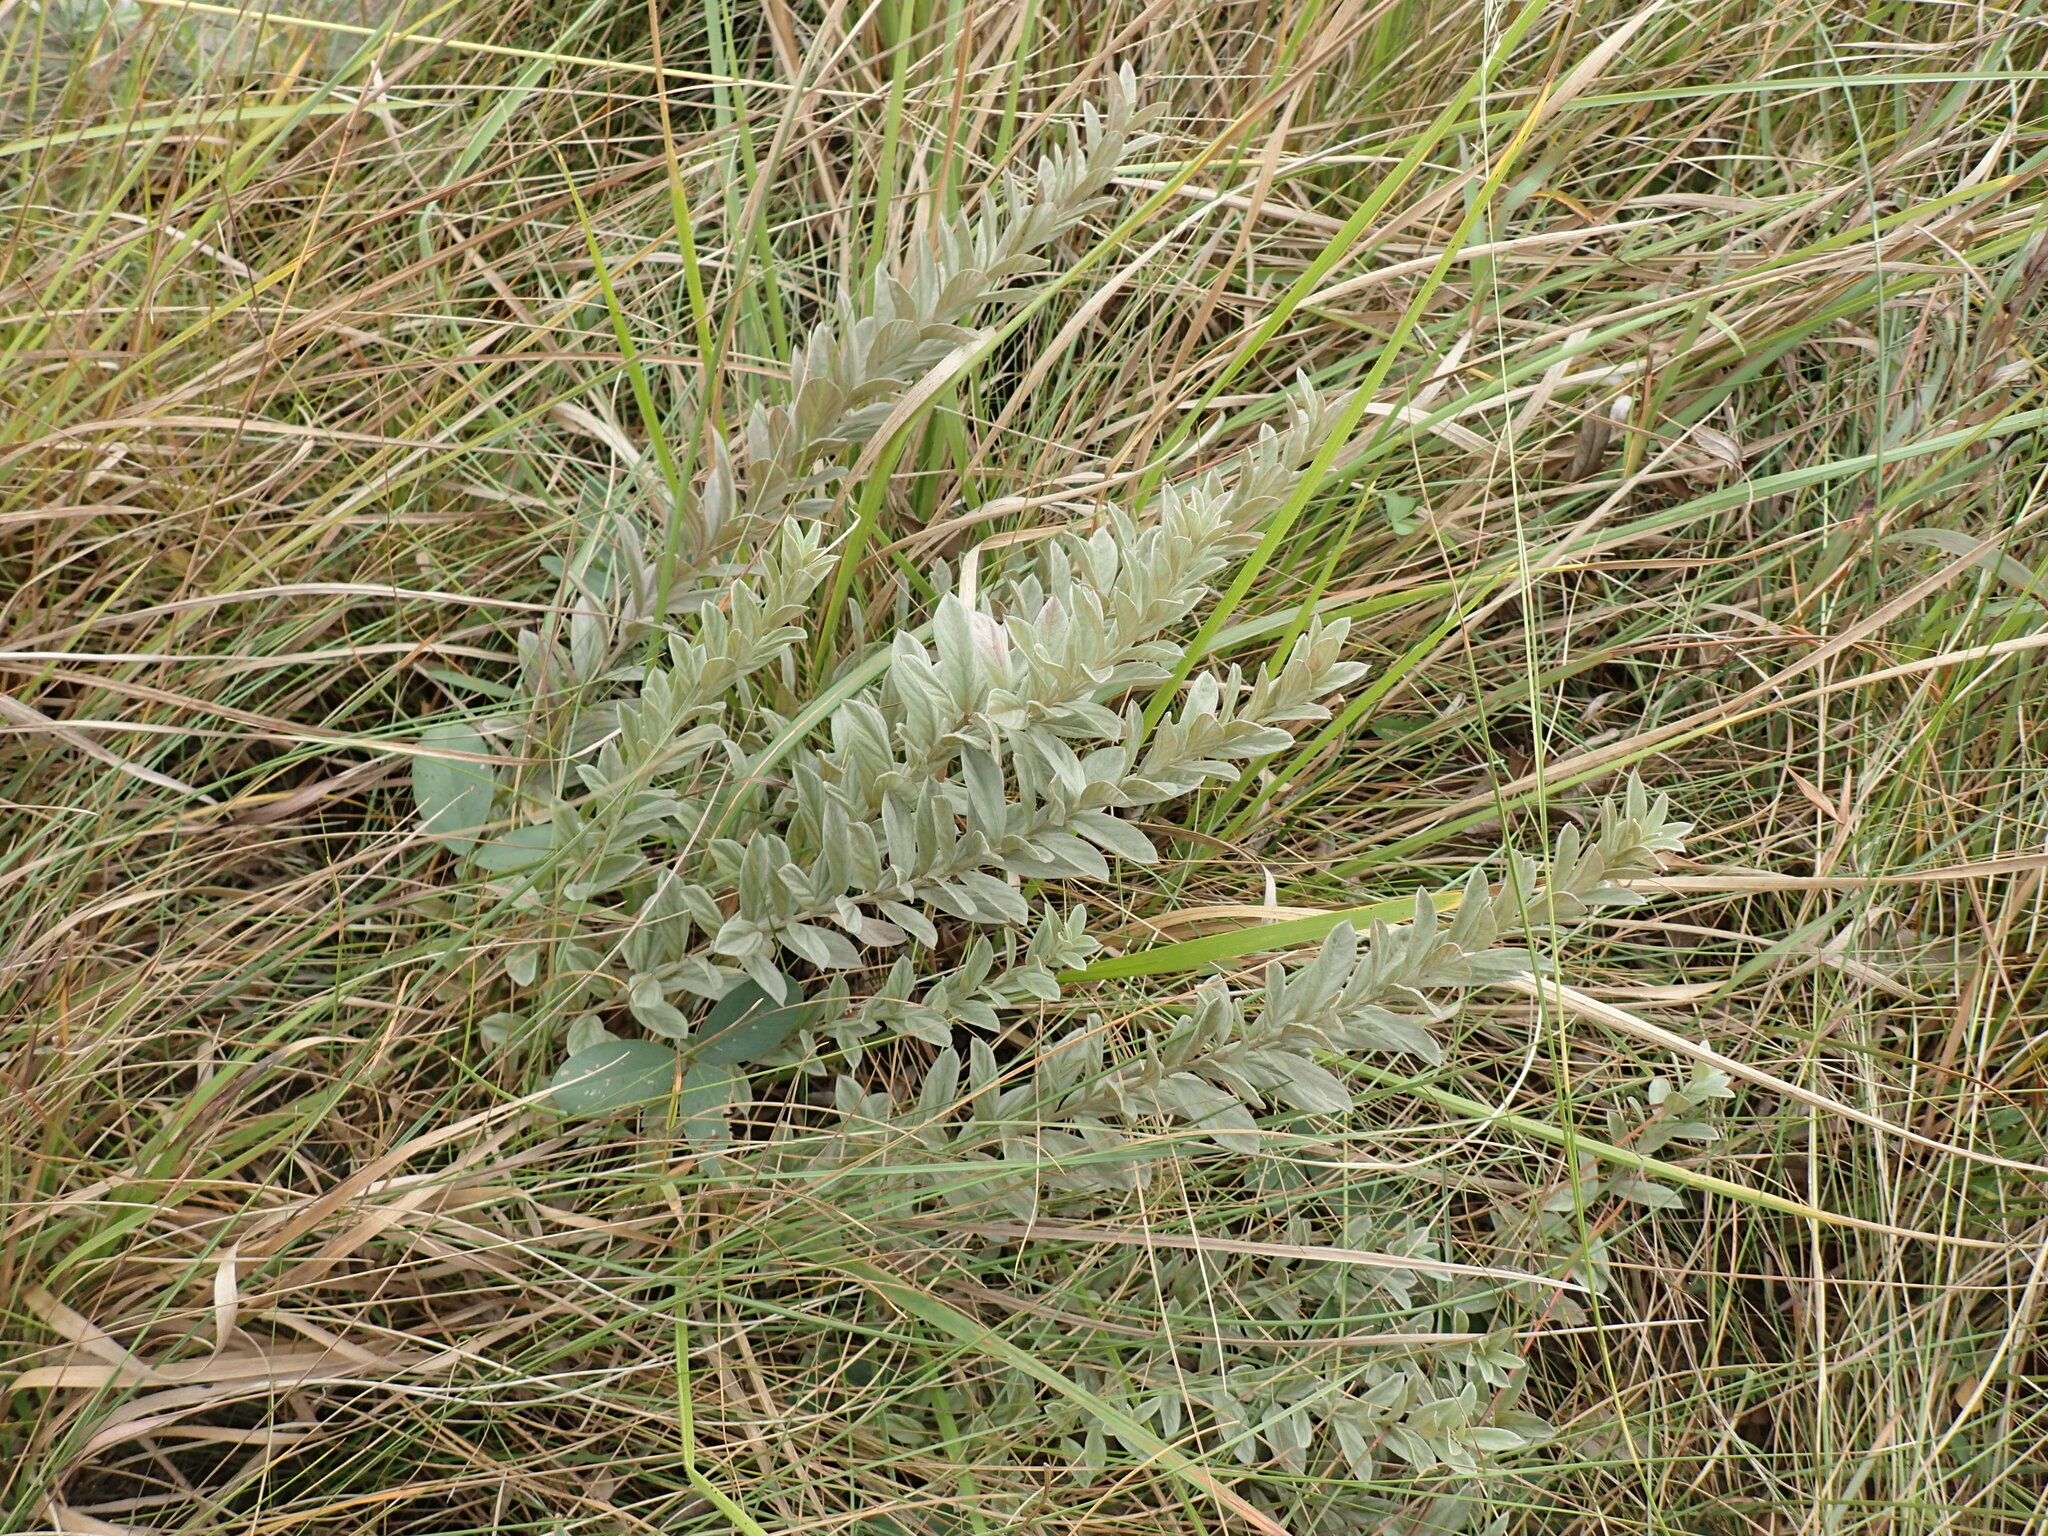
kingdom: Plantae
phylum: Tracheophyta
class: Magnoliopsida
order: Asterales
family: Asteraceae
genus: Hilliardiella
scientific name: Hilliardiella oligocephala
